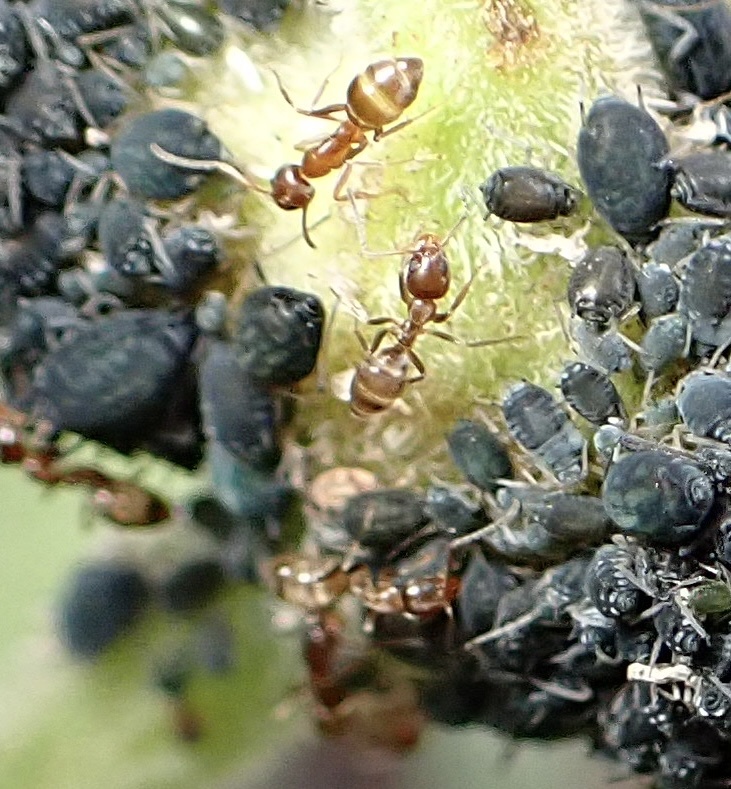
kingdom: Animalia
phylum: Arthropoda
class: Insecta
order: Hymenoptera
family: Formicidae
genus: Linepithema
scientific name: Linepithema humile
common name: Argentine ant
